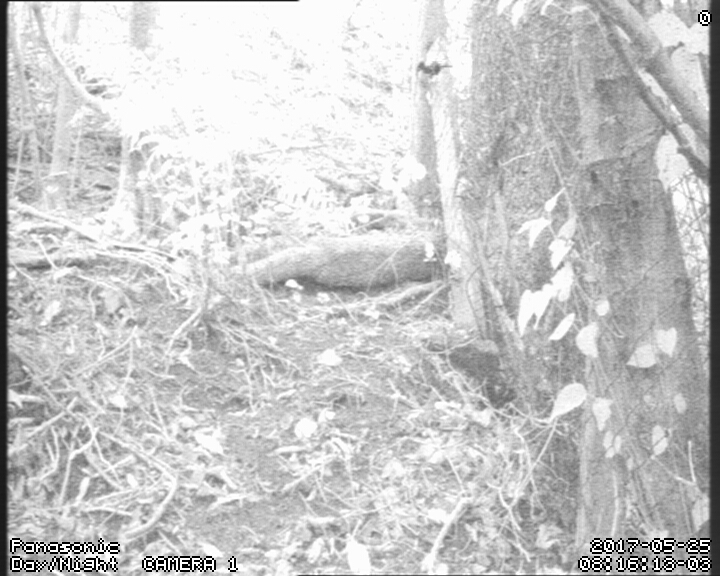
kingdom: Animalia
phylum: Chordata
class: Aves
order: Passeriformes
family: Callaeatidae
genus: Philesturnus
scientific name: Philesturnus carunculatus
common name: South island saddleback
